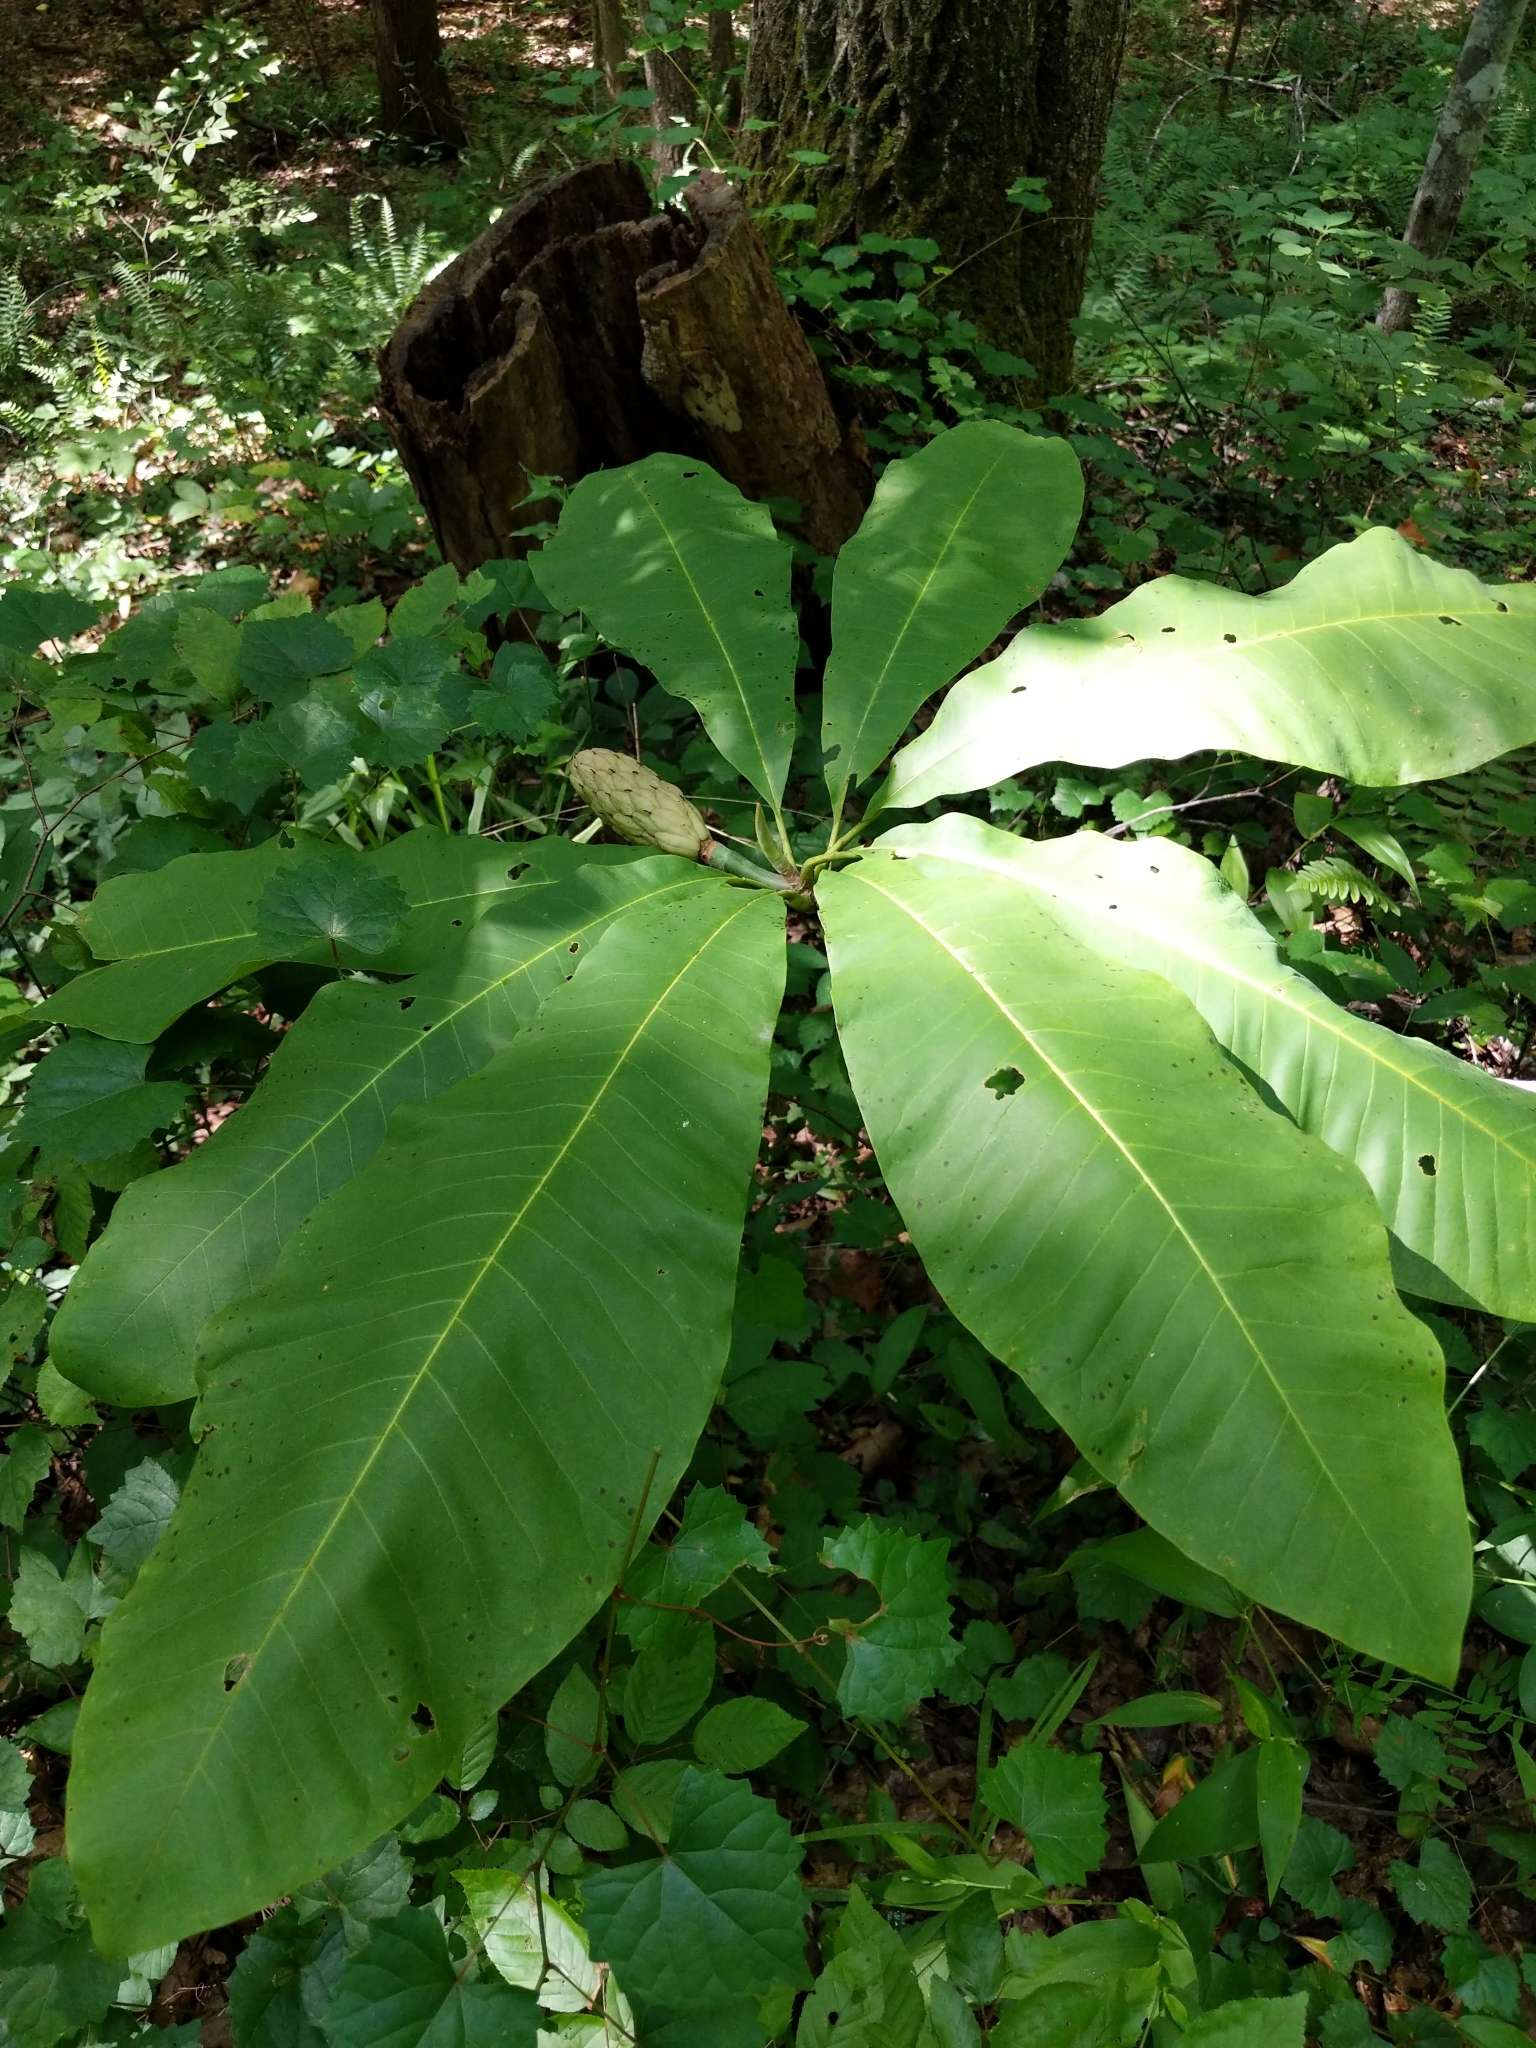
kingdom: Plantae
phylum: Tracheophyta
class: Magnoliopsida
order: Magnoliales
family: Magnoliaceae
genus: Magnolia
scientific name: Magnolia tripetala
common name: Umbrella magnolia
